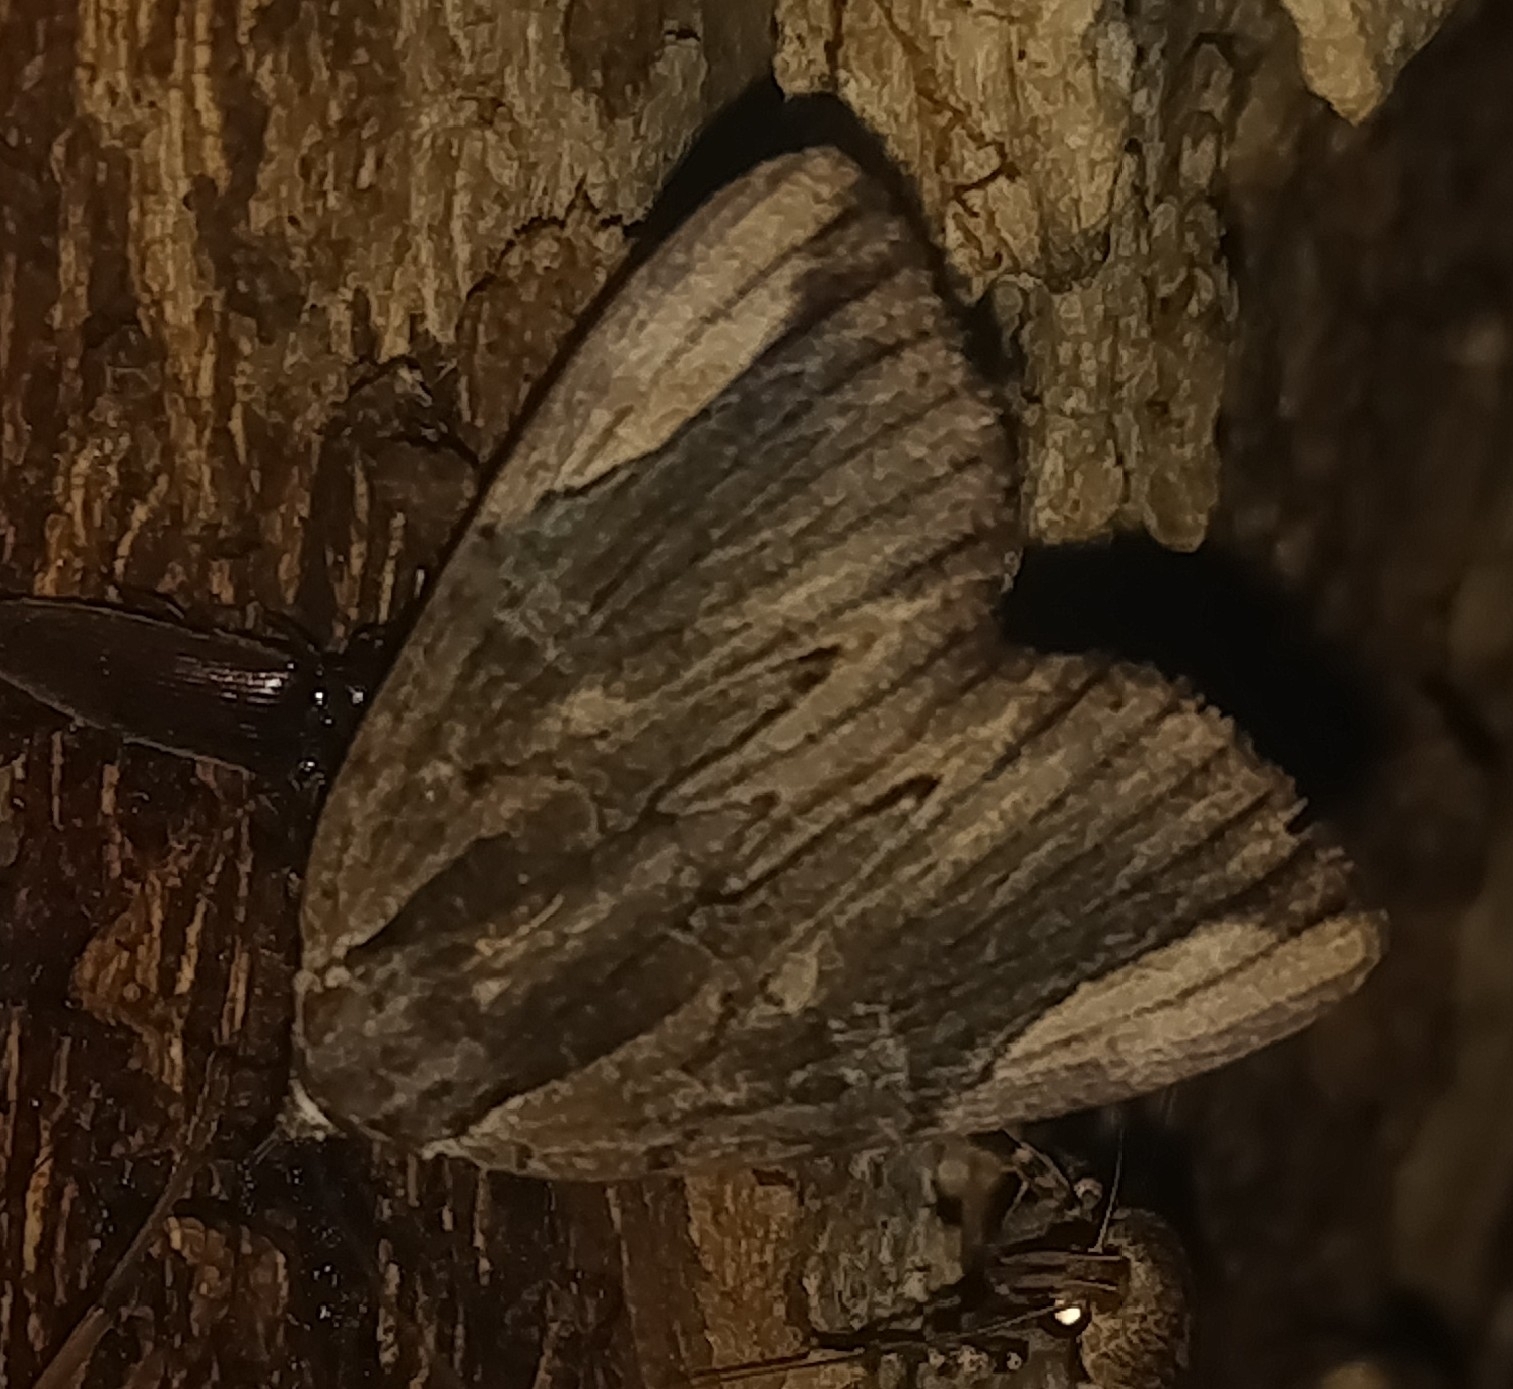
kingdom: Animalia
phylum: Arthropoda
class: Insecta
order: Lepidoptera
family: Erebidae
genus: Catocala
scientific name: Catocala ultronia
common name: Ultronia underwing
